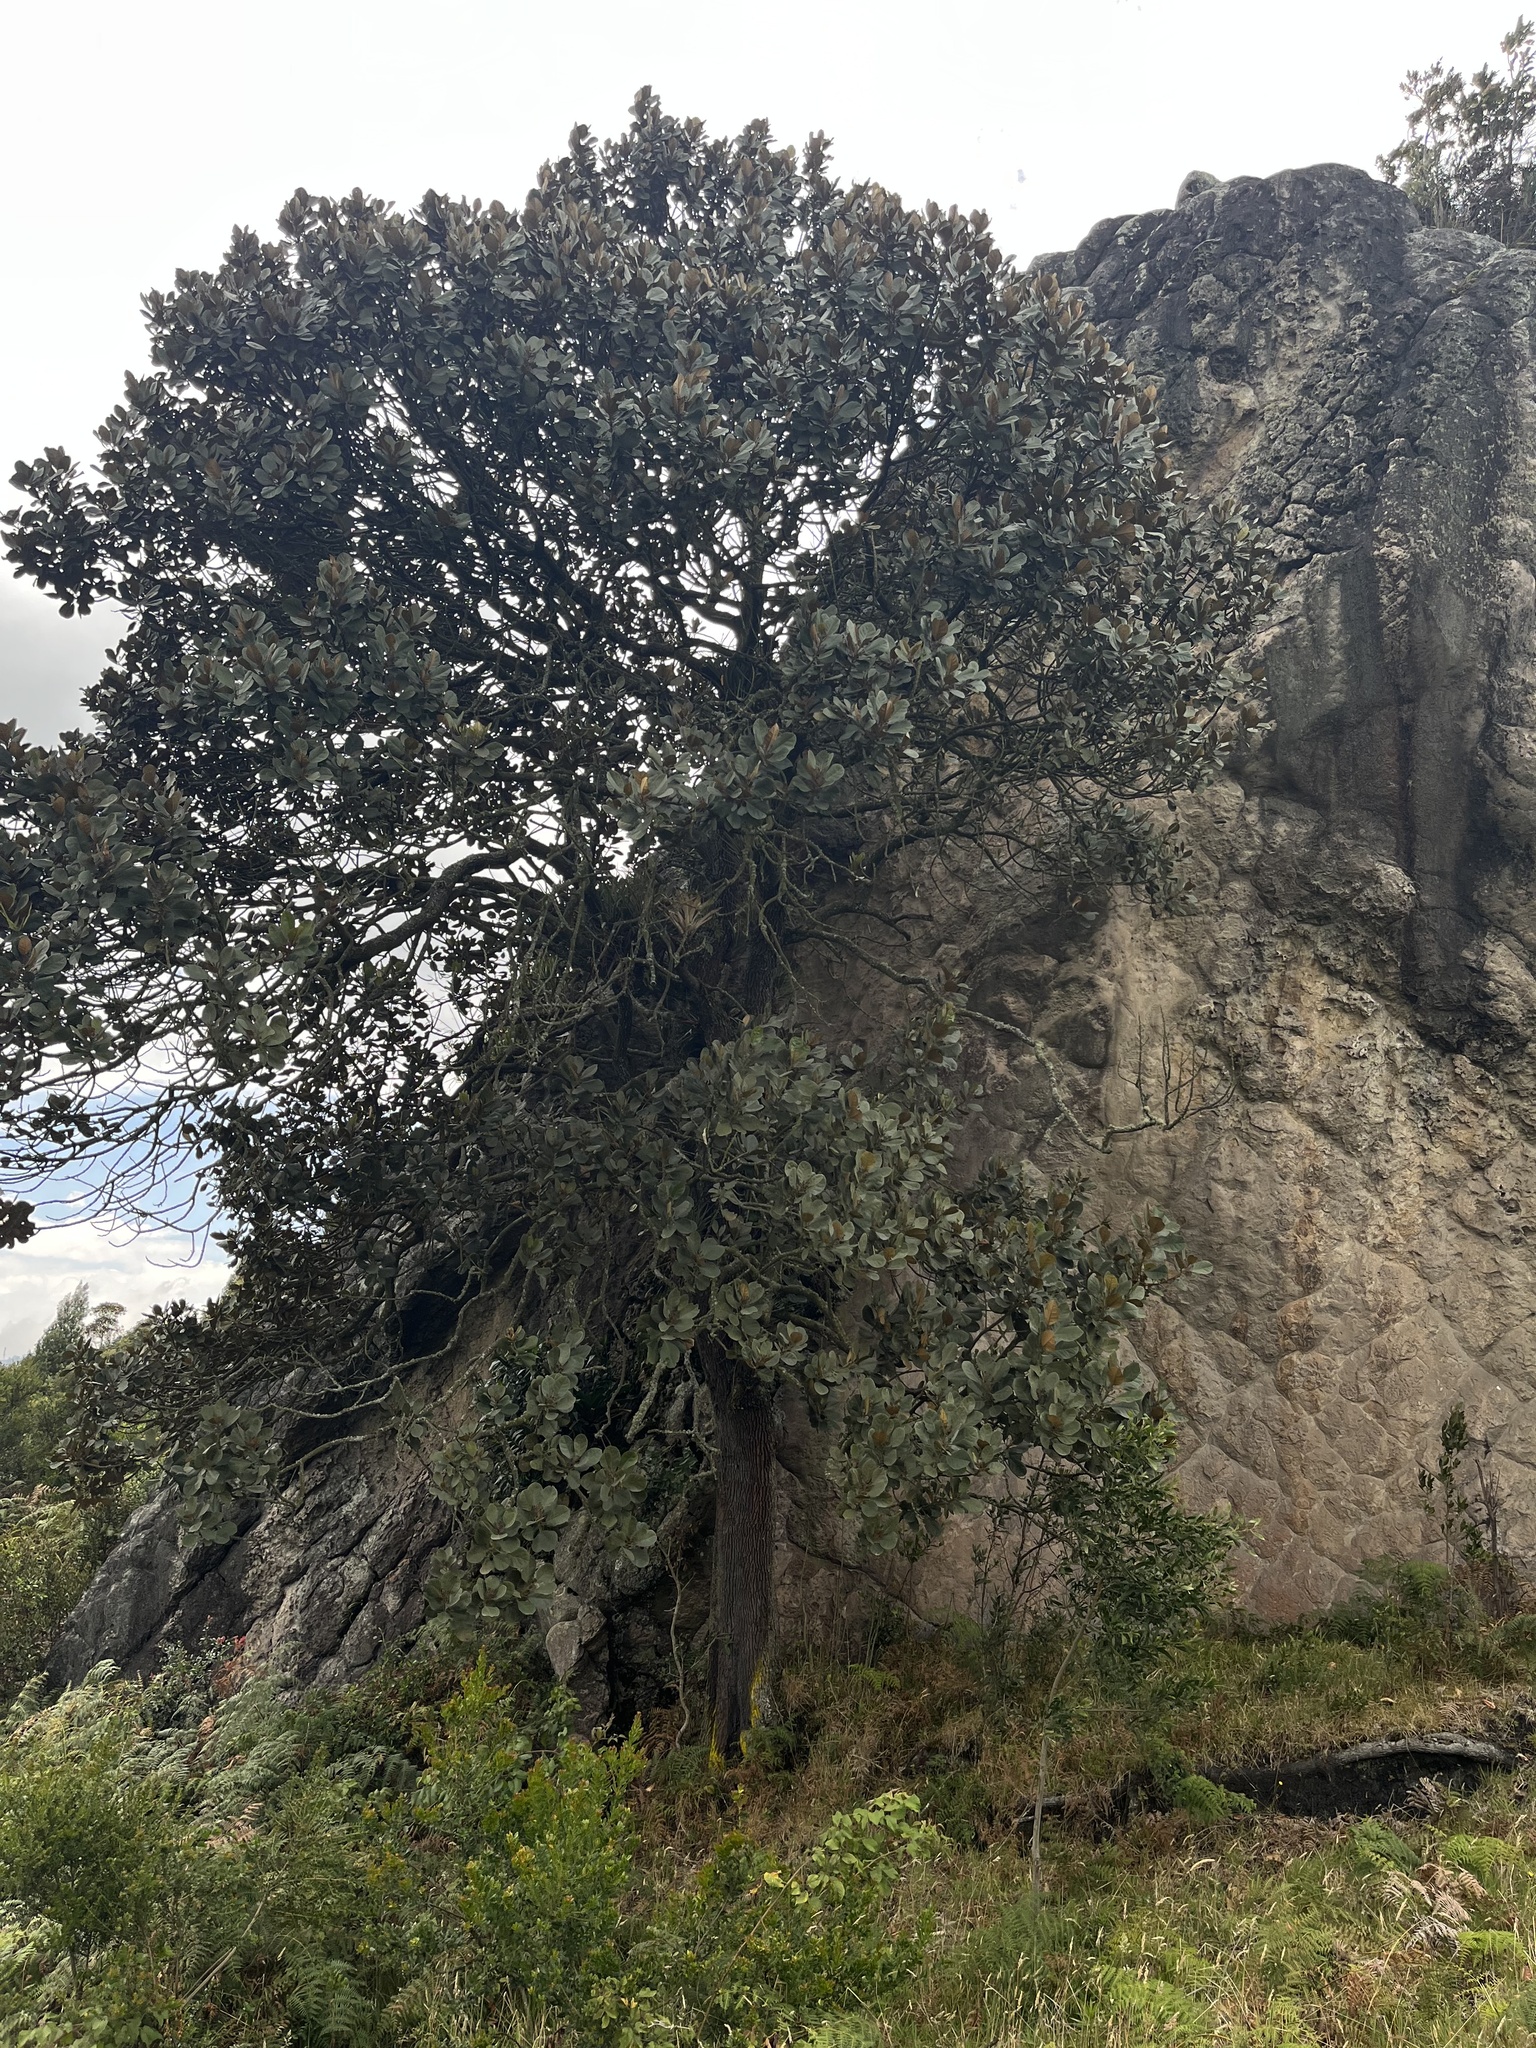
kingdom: Plantae
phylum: Tracheophyta
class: Magnoliopsida
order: Malpighiales
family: Phyllanthaceae
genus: Hieronyma
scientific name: Hieronyma rufa
